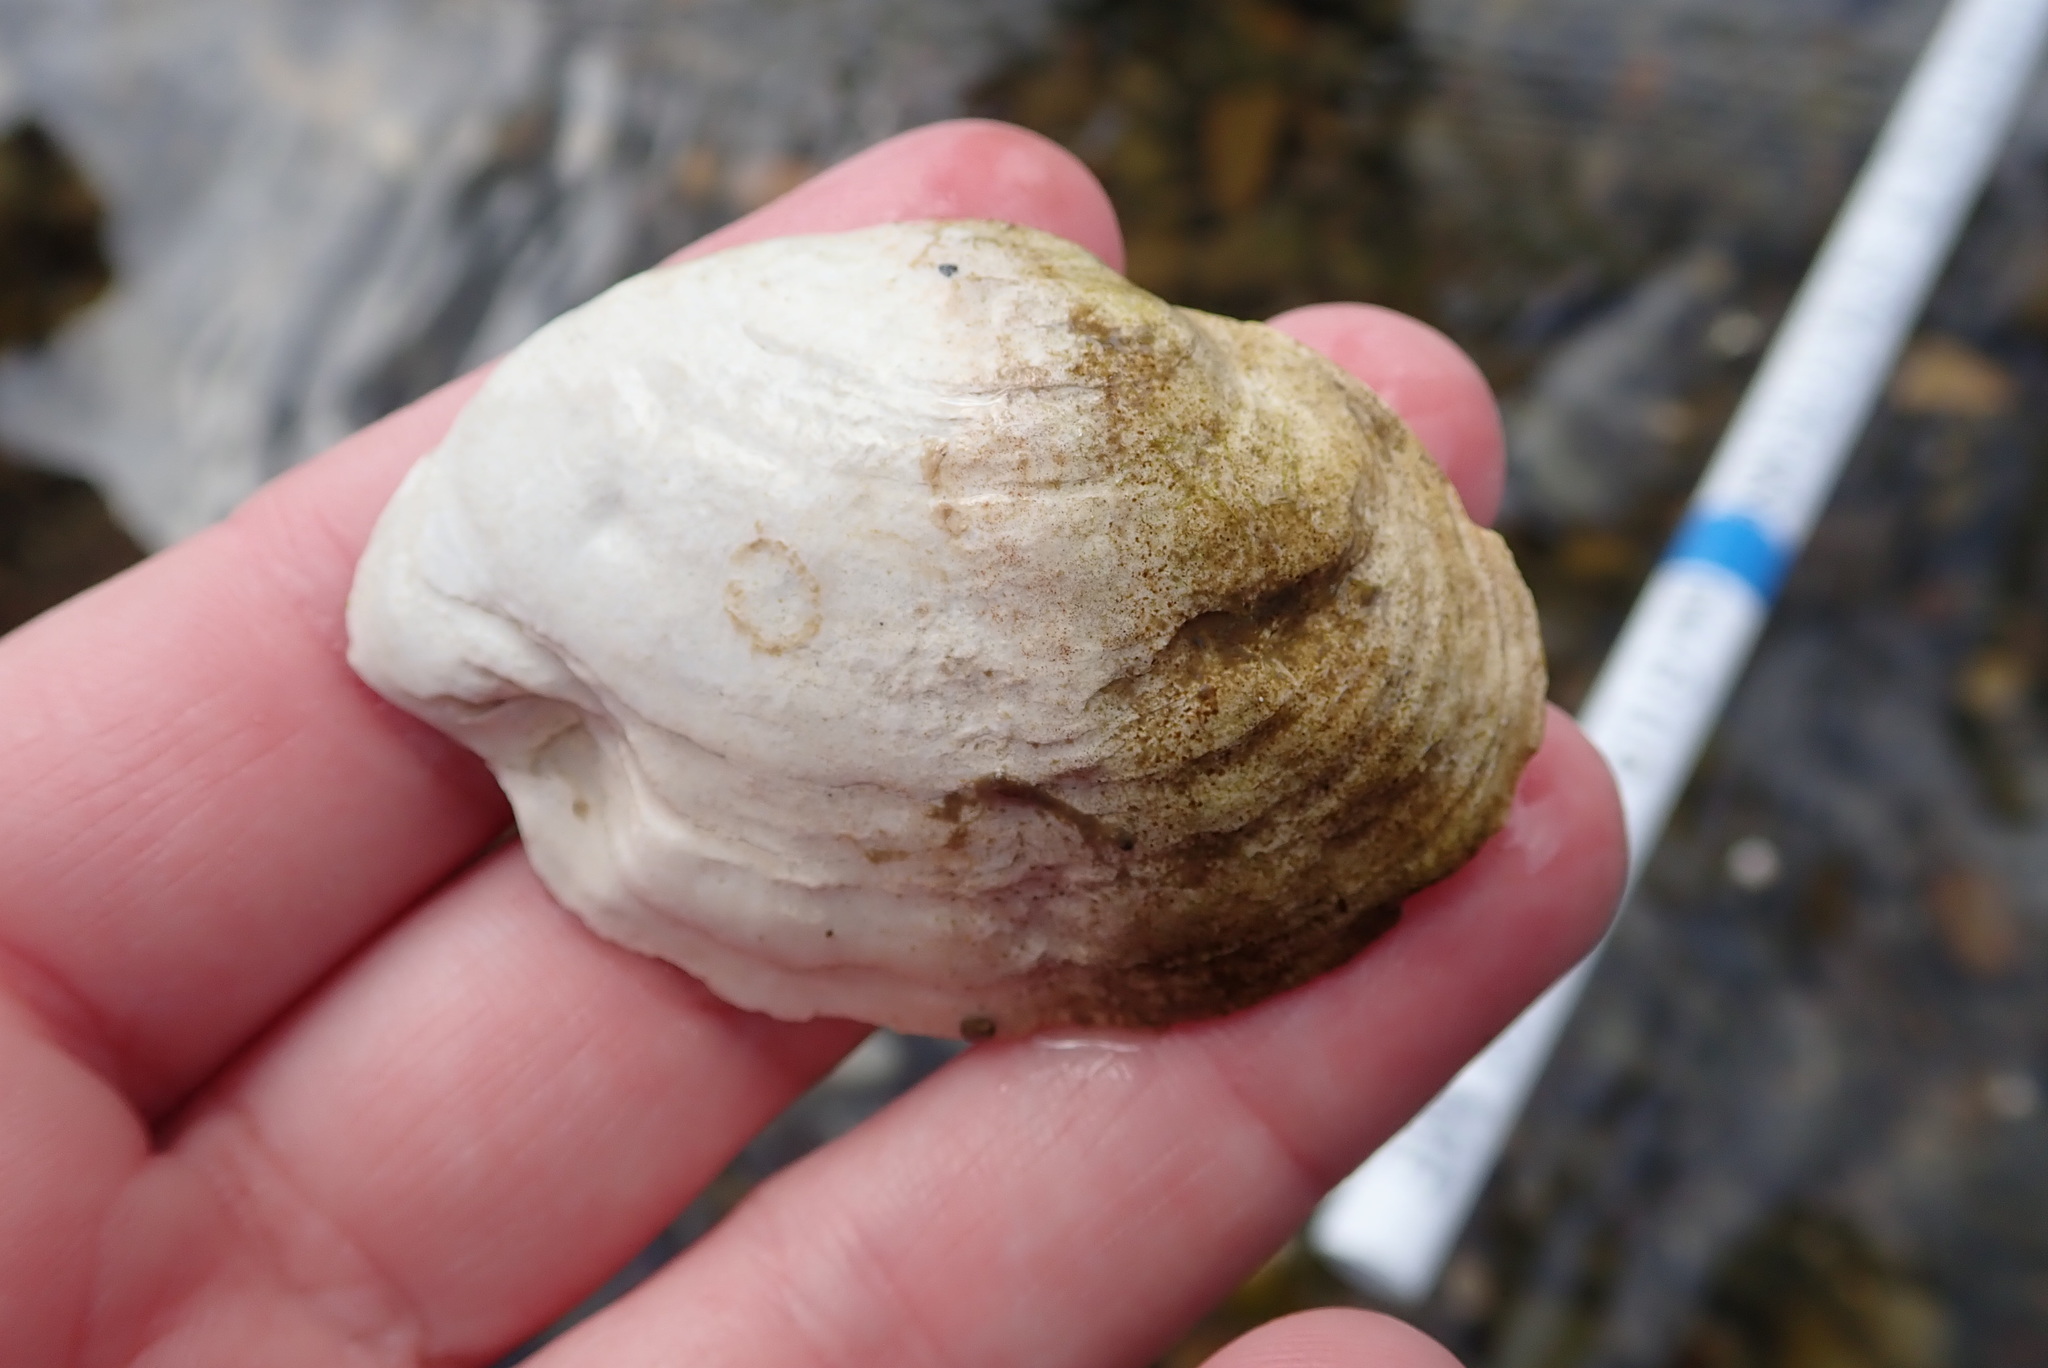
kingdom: Animalia
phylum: Mollusca
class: Bivalvia
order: Myida
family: Myidae
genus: Mya
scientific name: Mya arenaria
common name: Soft-shelled clam
